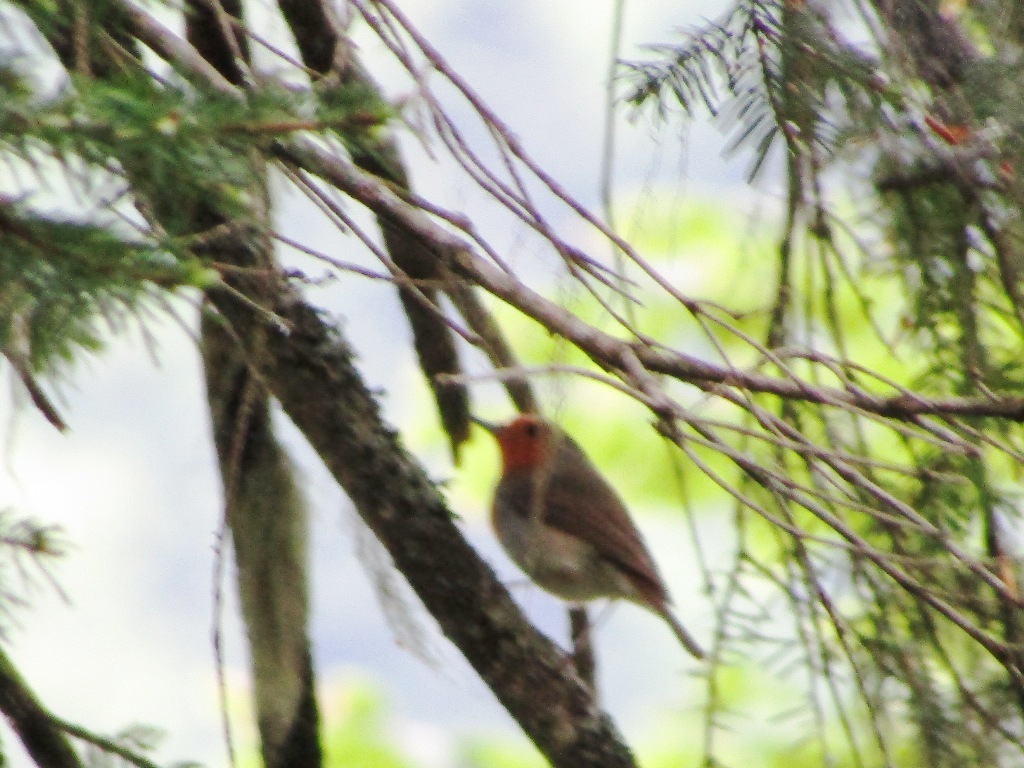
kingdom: Animalia
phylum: Chordata
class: Aves
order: Passeriformes
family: Muscicapidae
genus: Erithacus
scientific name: Erithacus rubecula
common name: European robin
